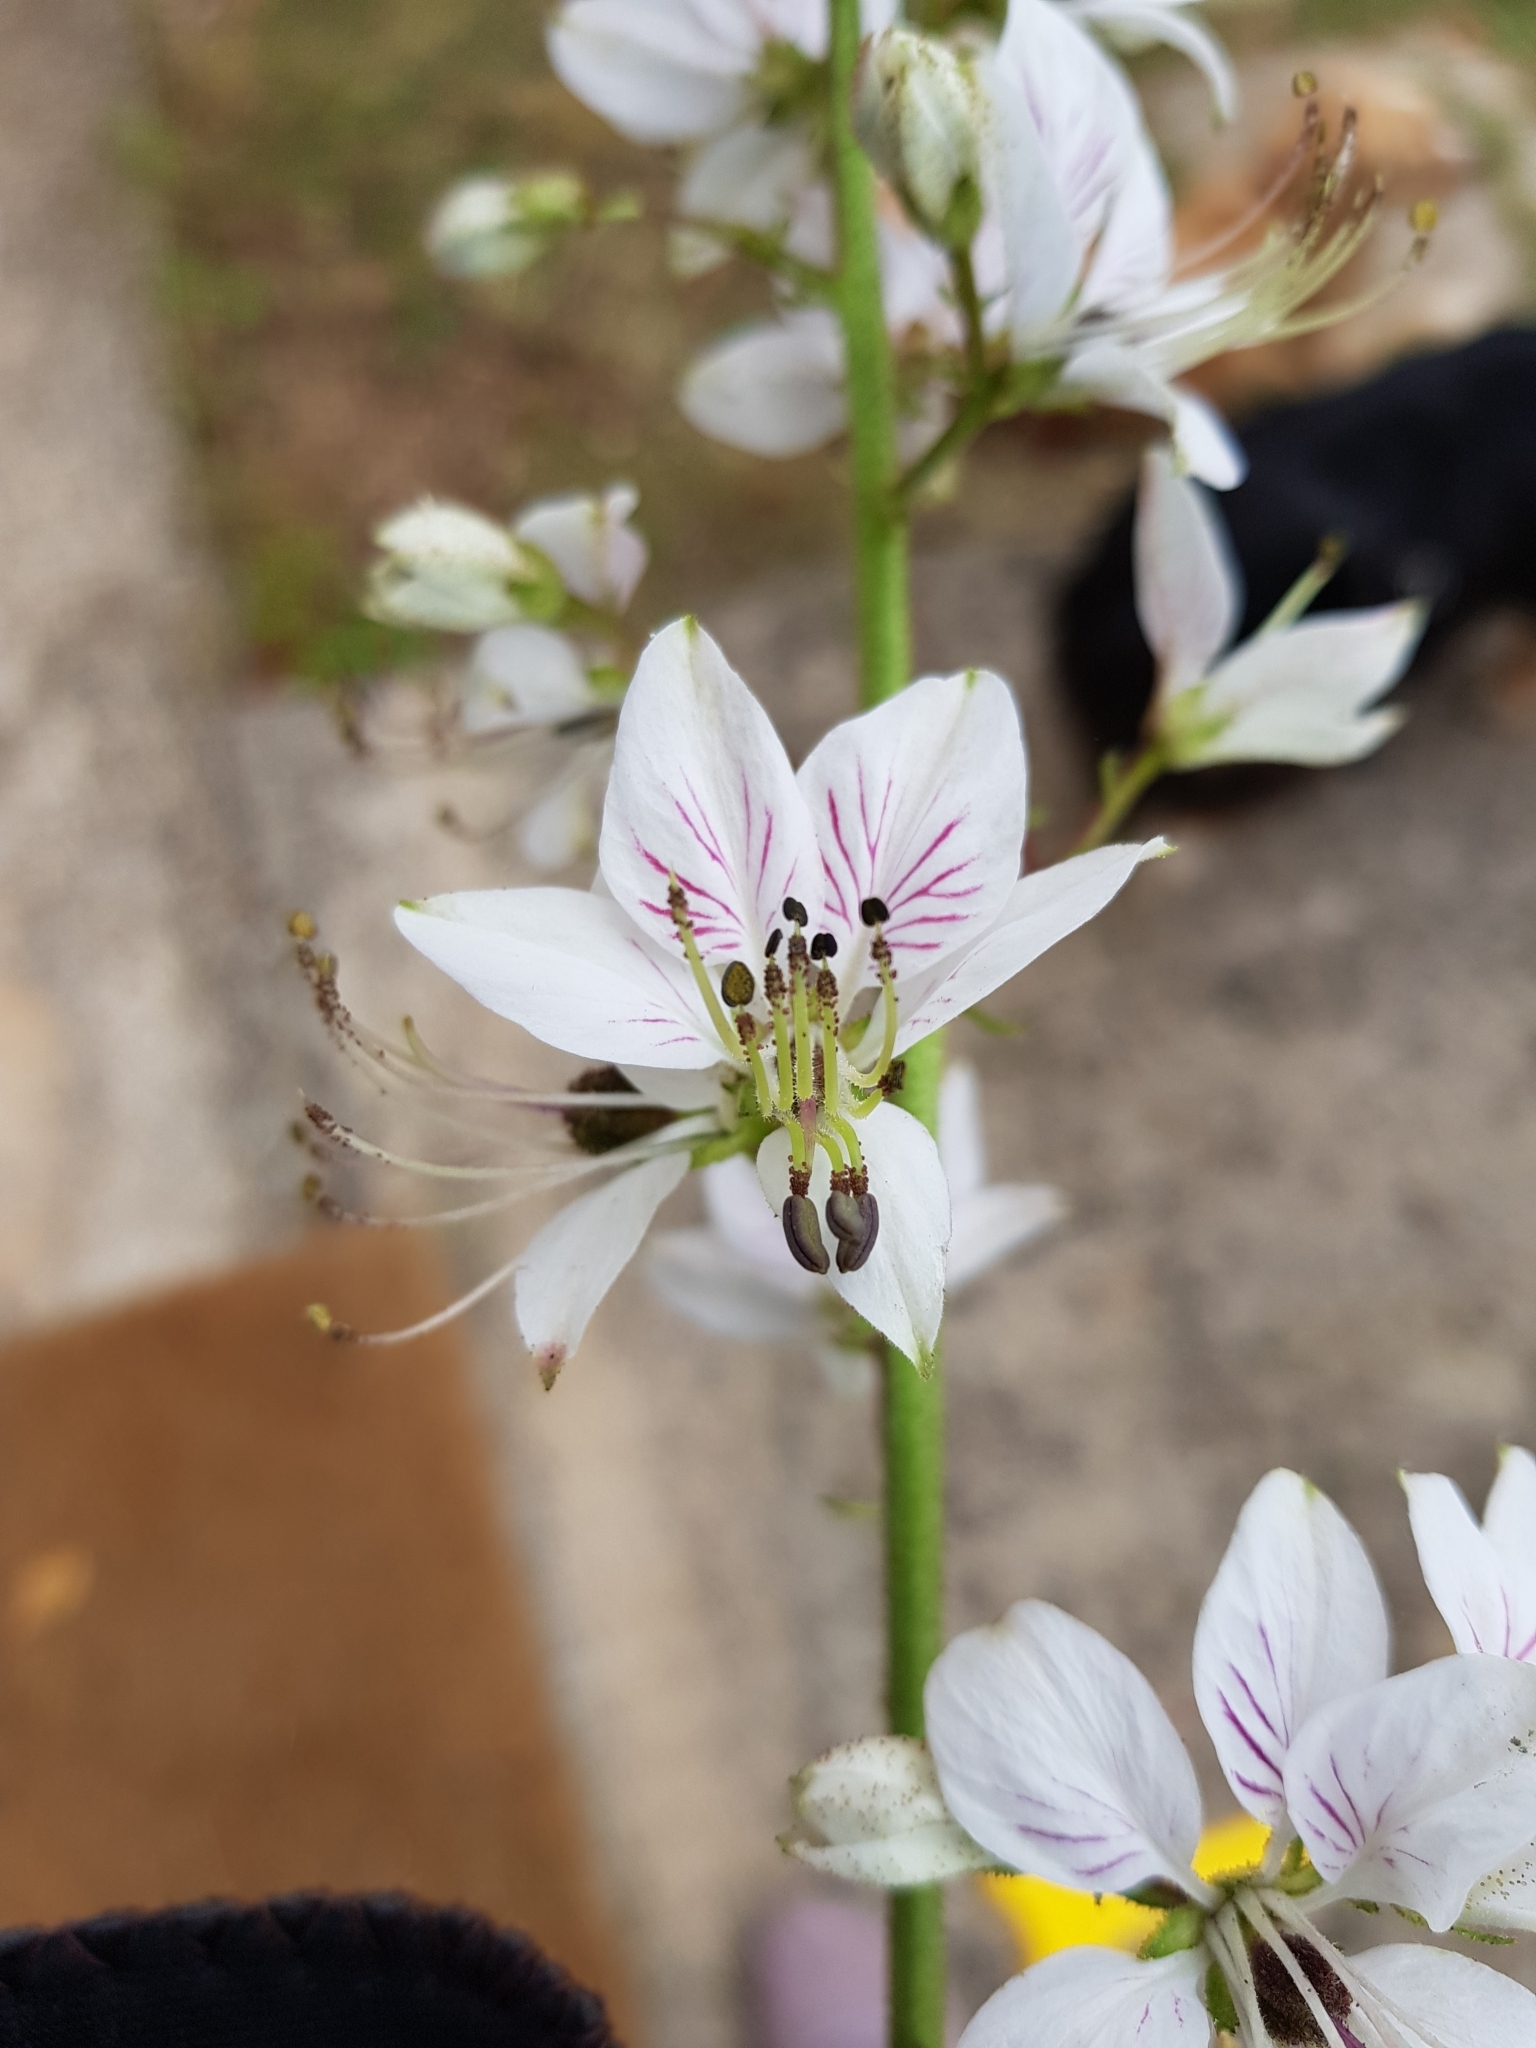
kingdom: Plantae
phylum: Tracheophyta
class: Magnoliopsida
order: Sapindales
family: Rutaceae
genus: Dictamnus
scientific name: Dictamnus albus
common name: Gasplant
